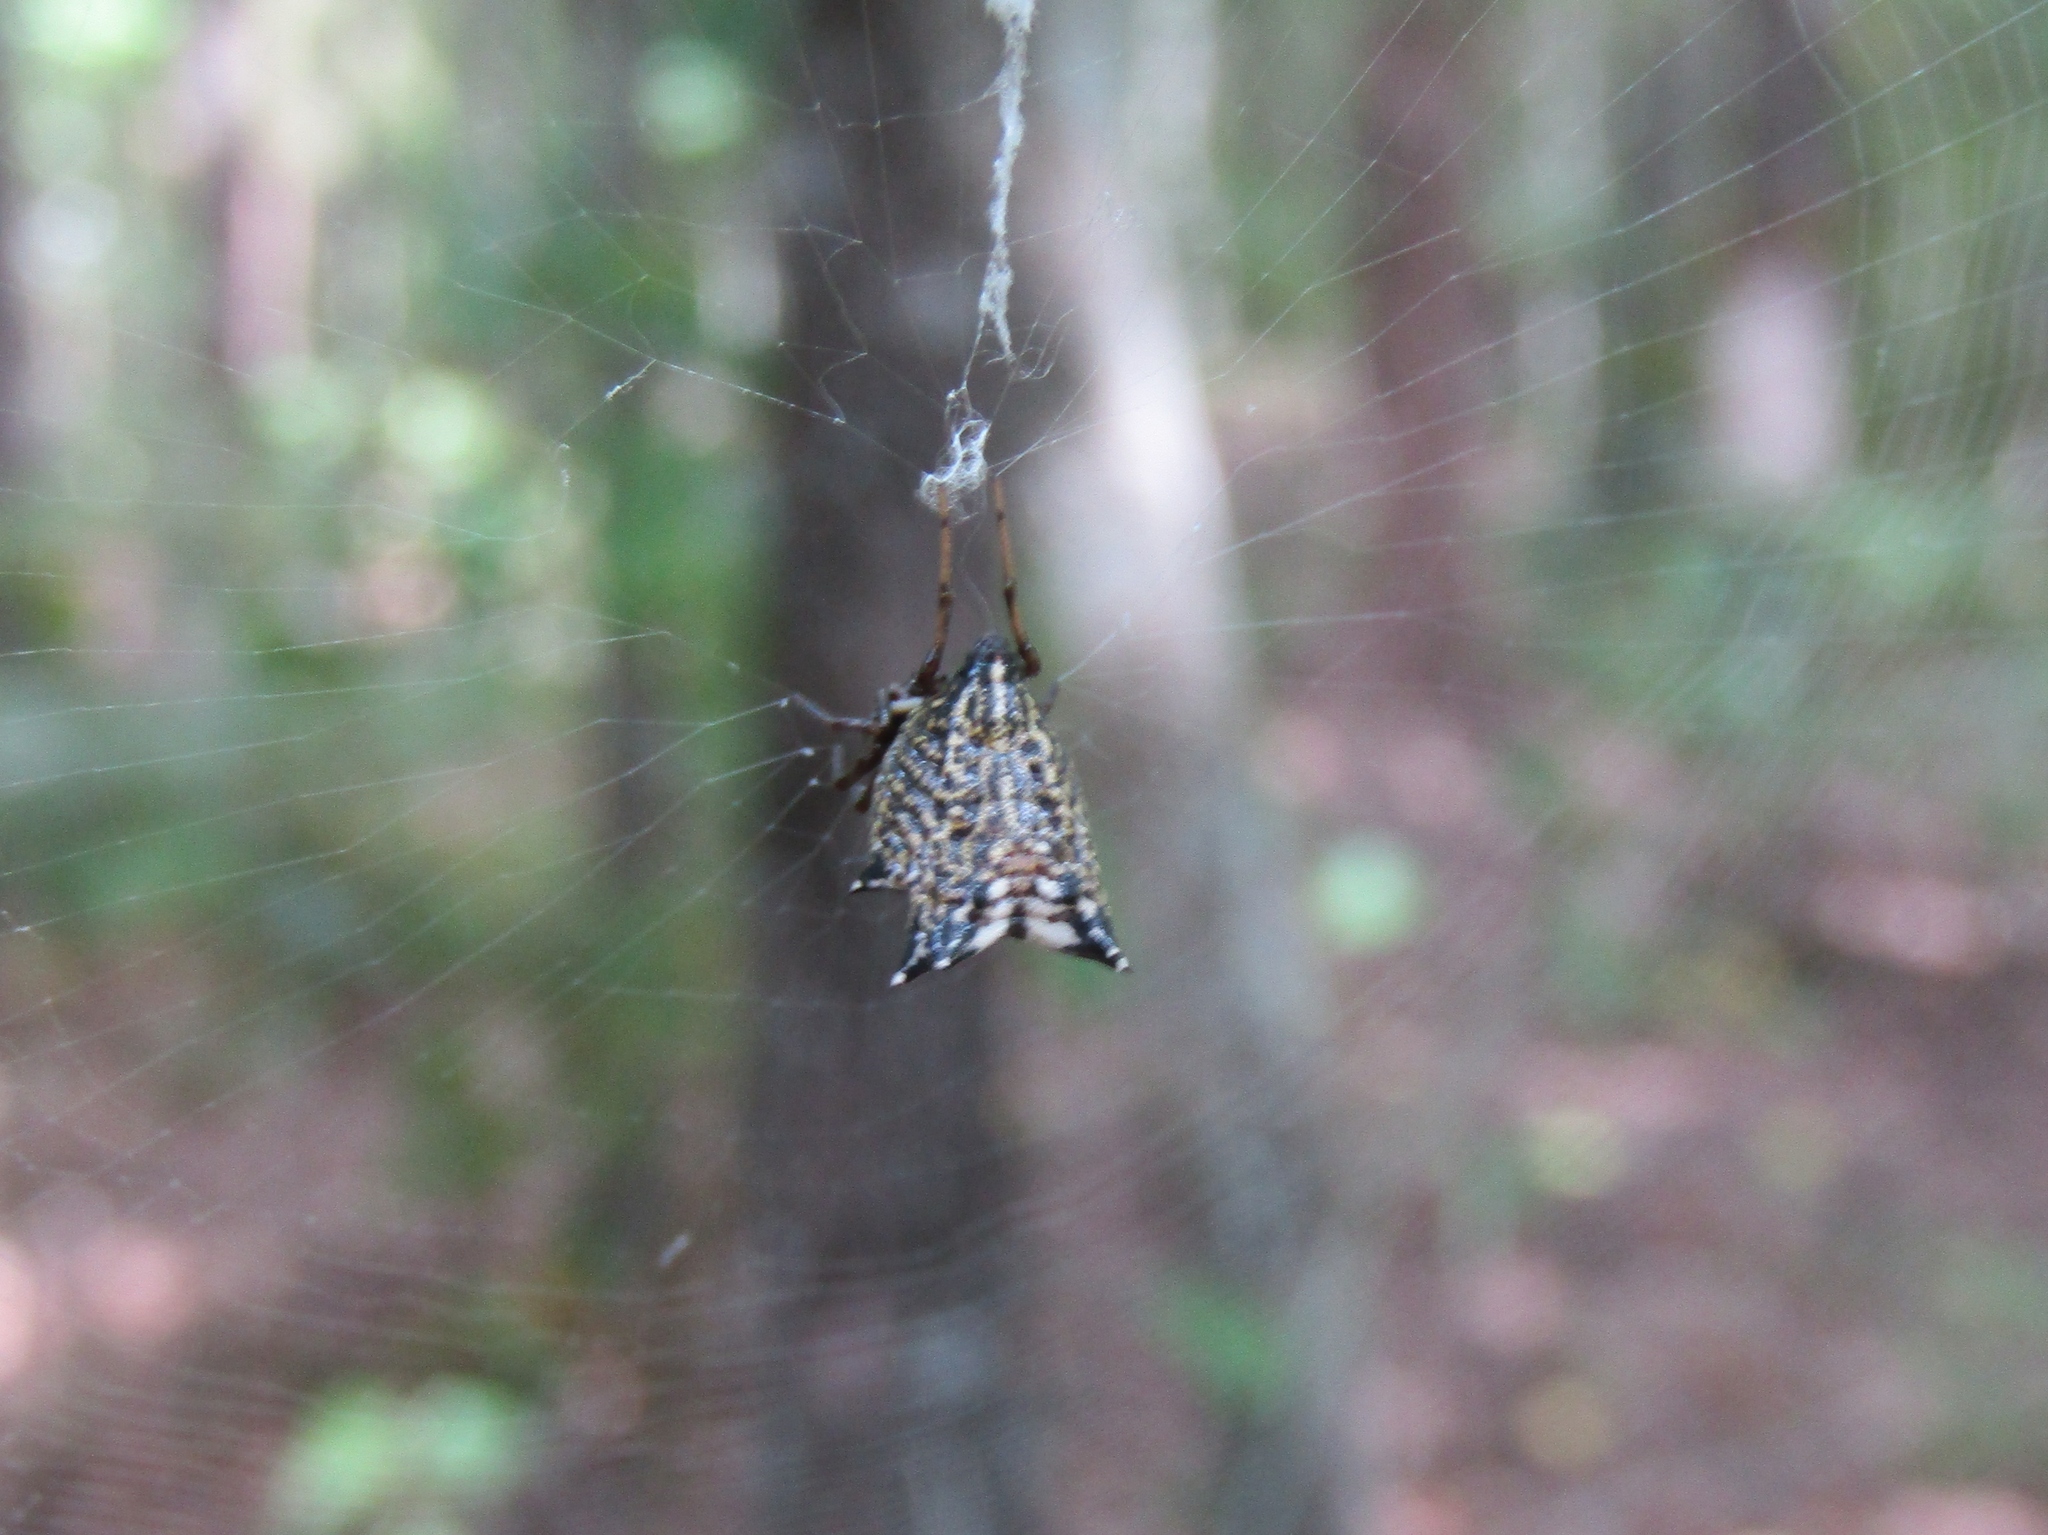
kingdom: Animalia
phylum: Arthropoda
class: Arachnida
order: Araneae
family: Araneidae
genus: Micrathena
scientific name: Micrathena gracilis
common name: Orb weavers
